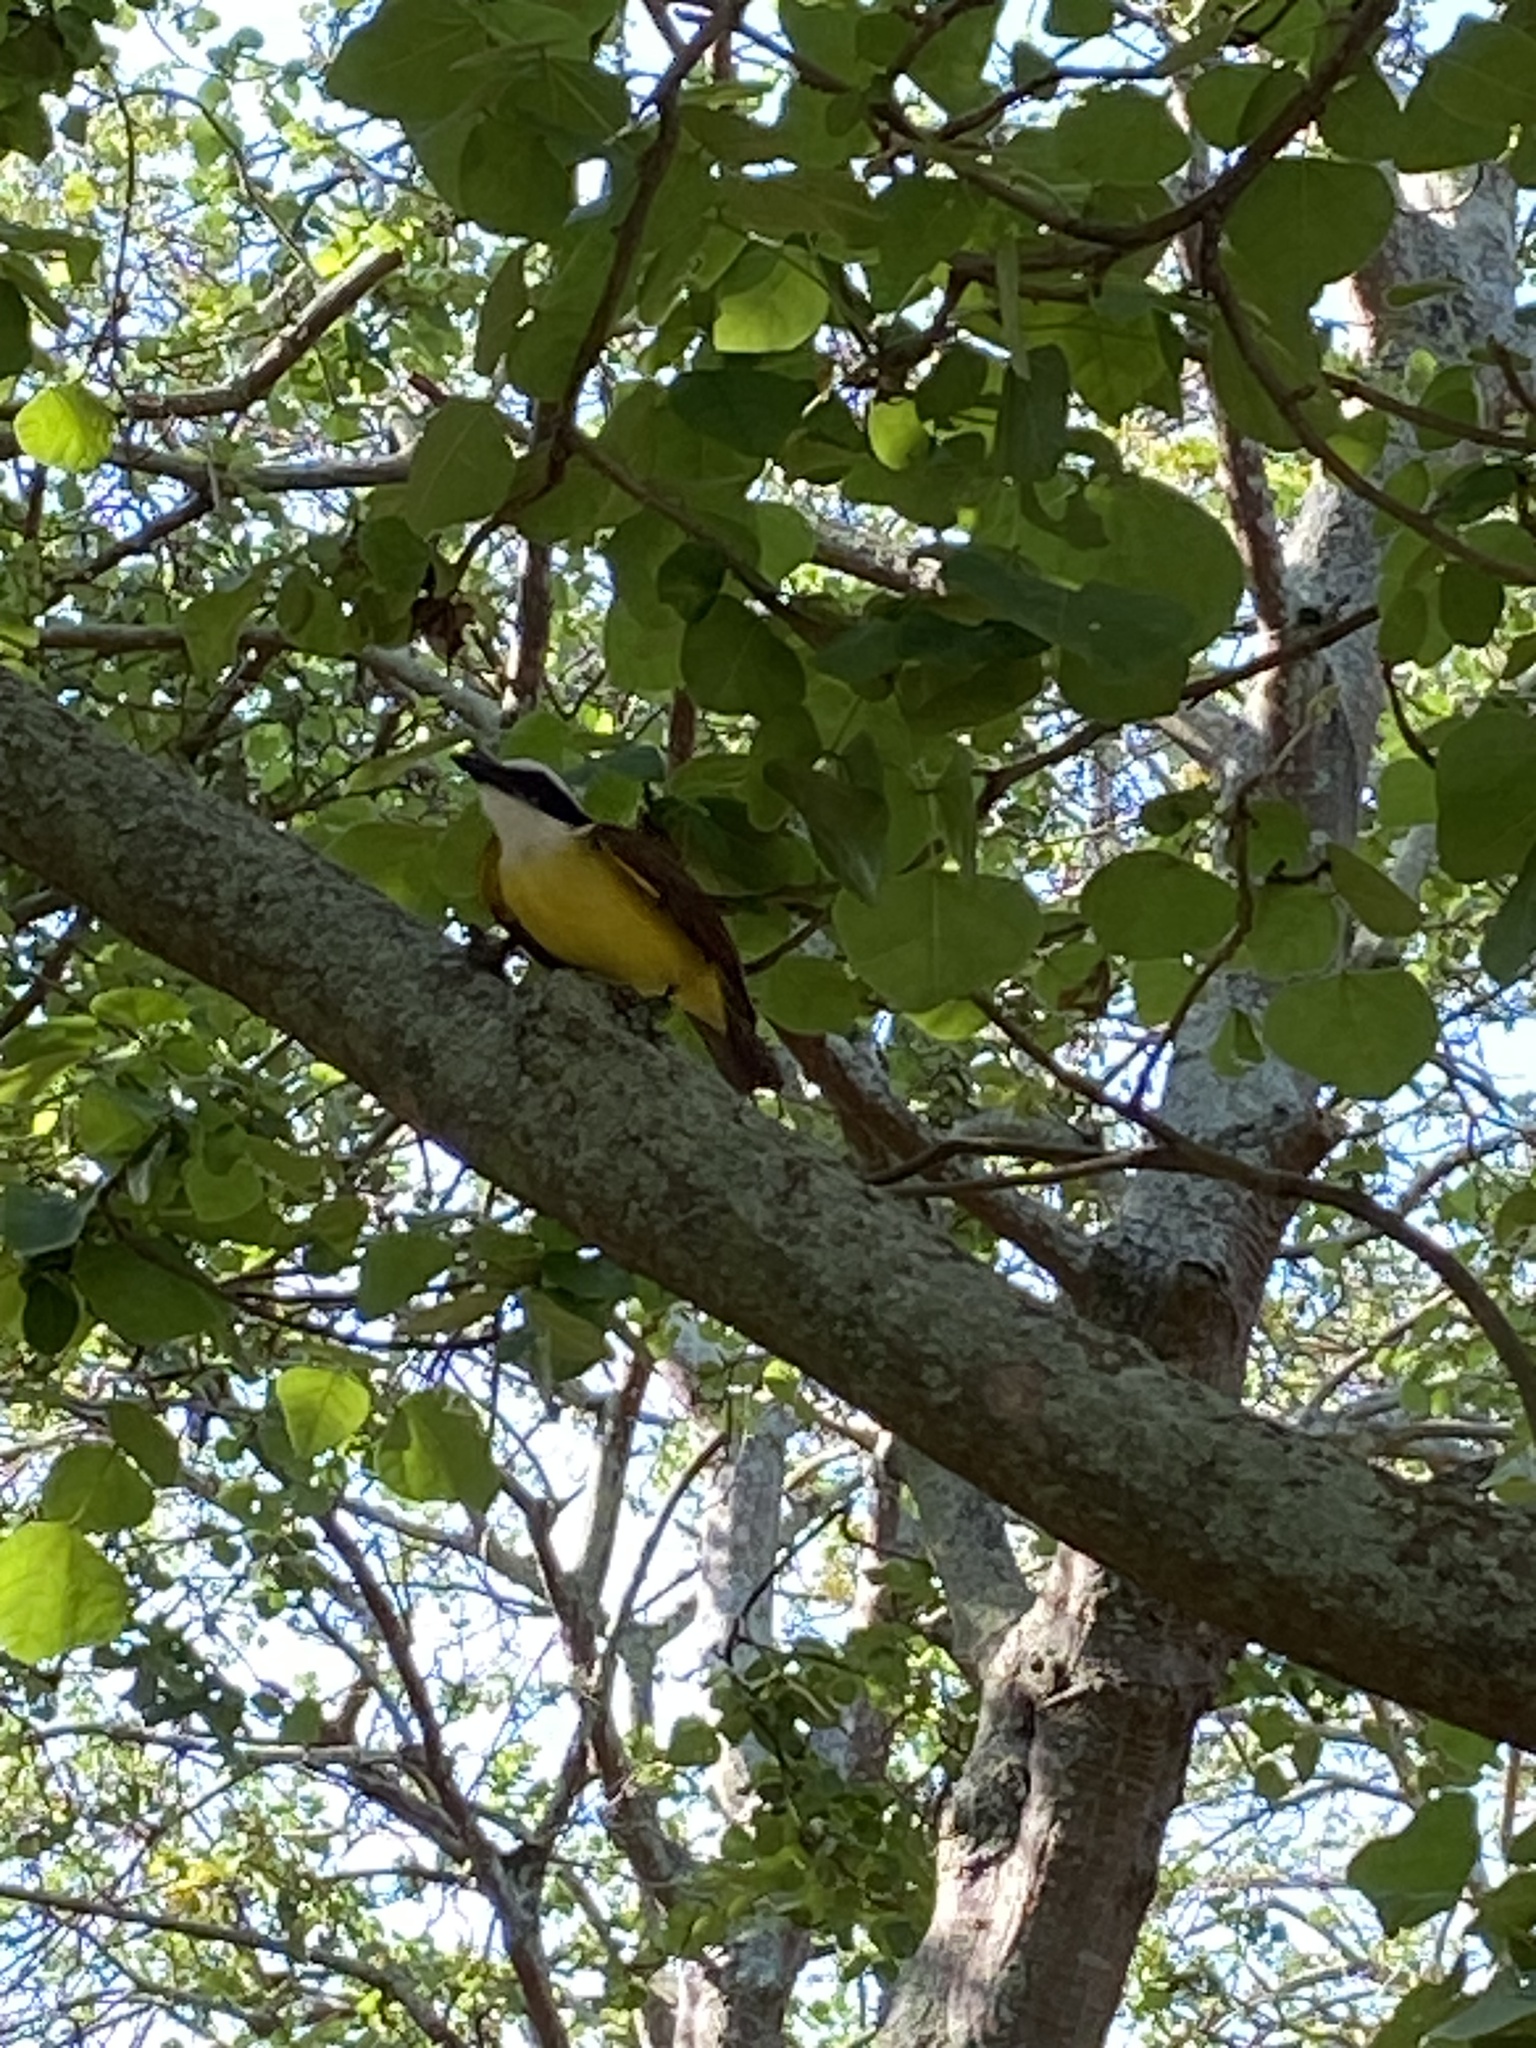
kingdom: Animalia
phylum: Chordata
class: Aves
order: Passeriformes
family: Tyrannidae
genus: Pitangus
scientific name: Pitangus sulphuratus
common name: Great kiskadee
